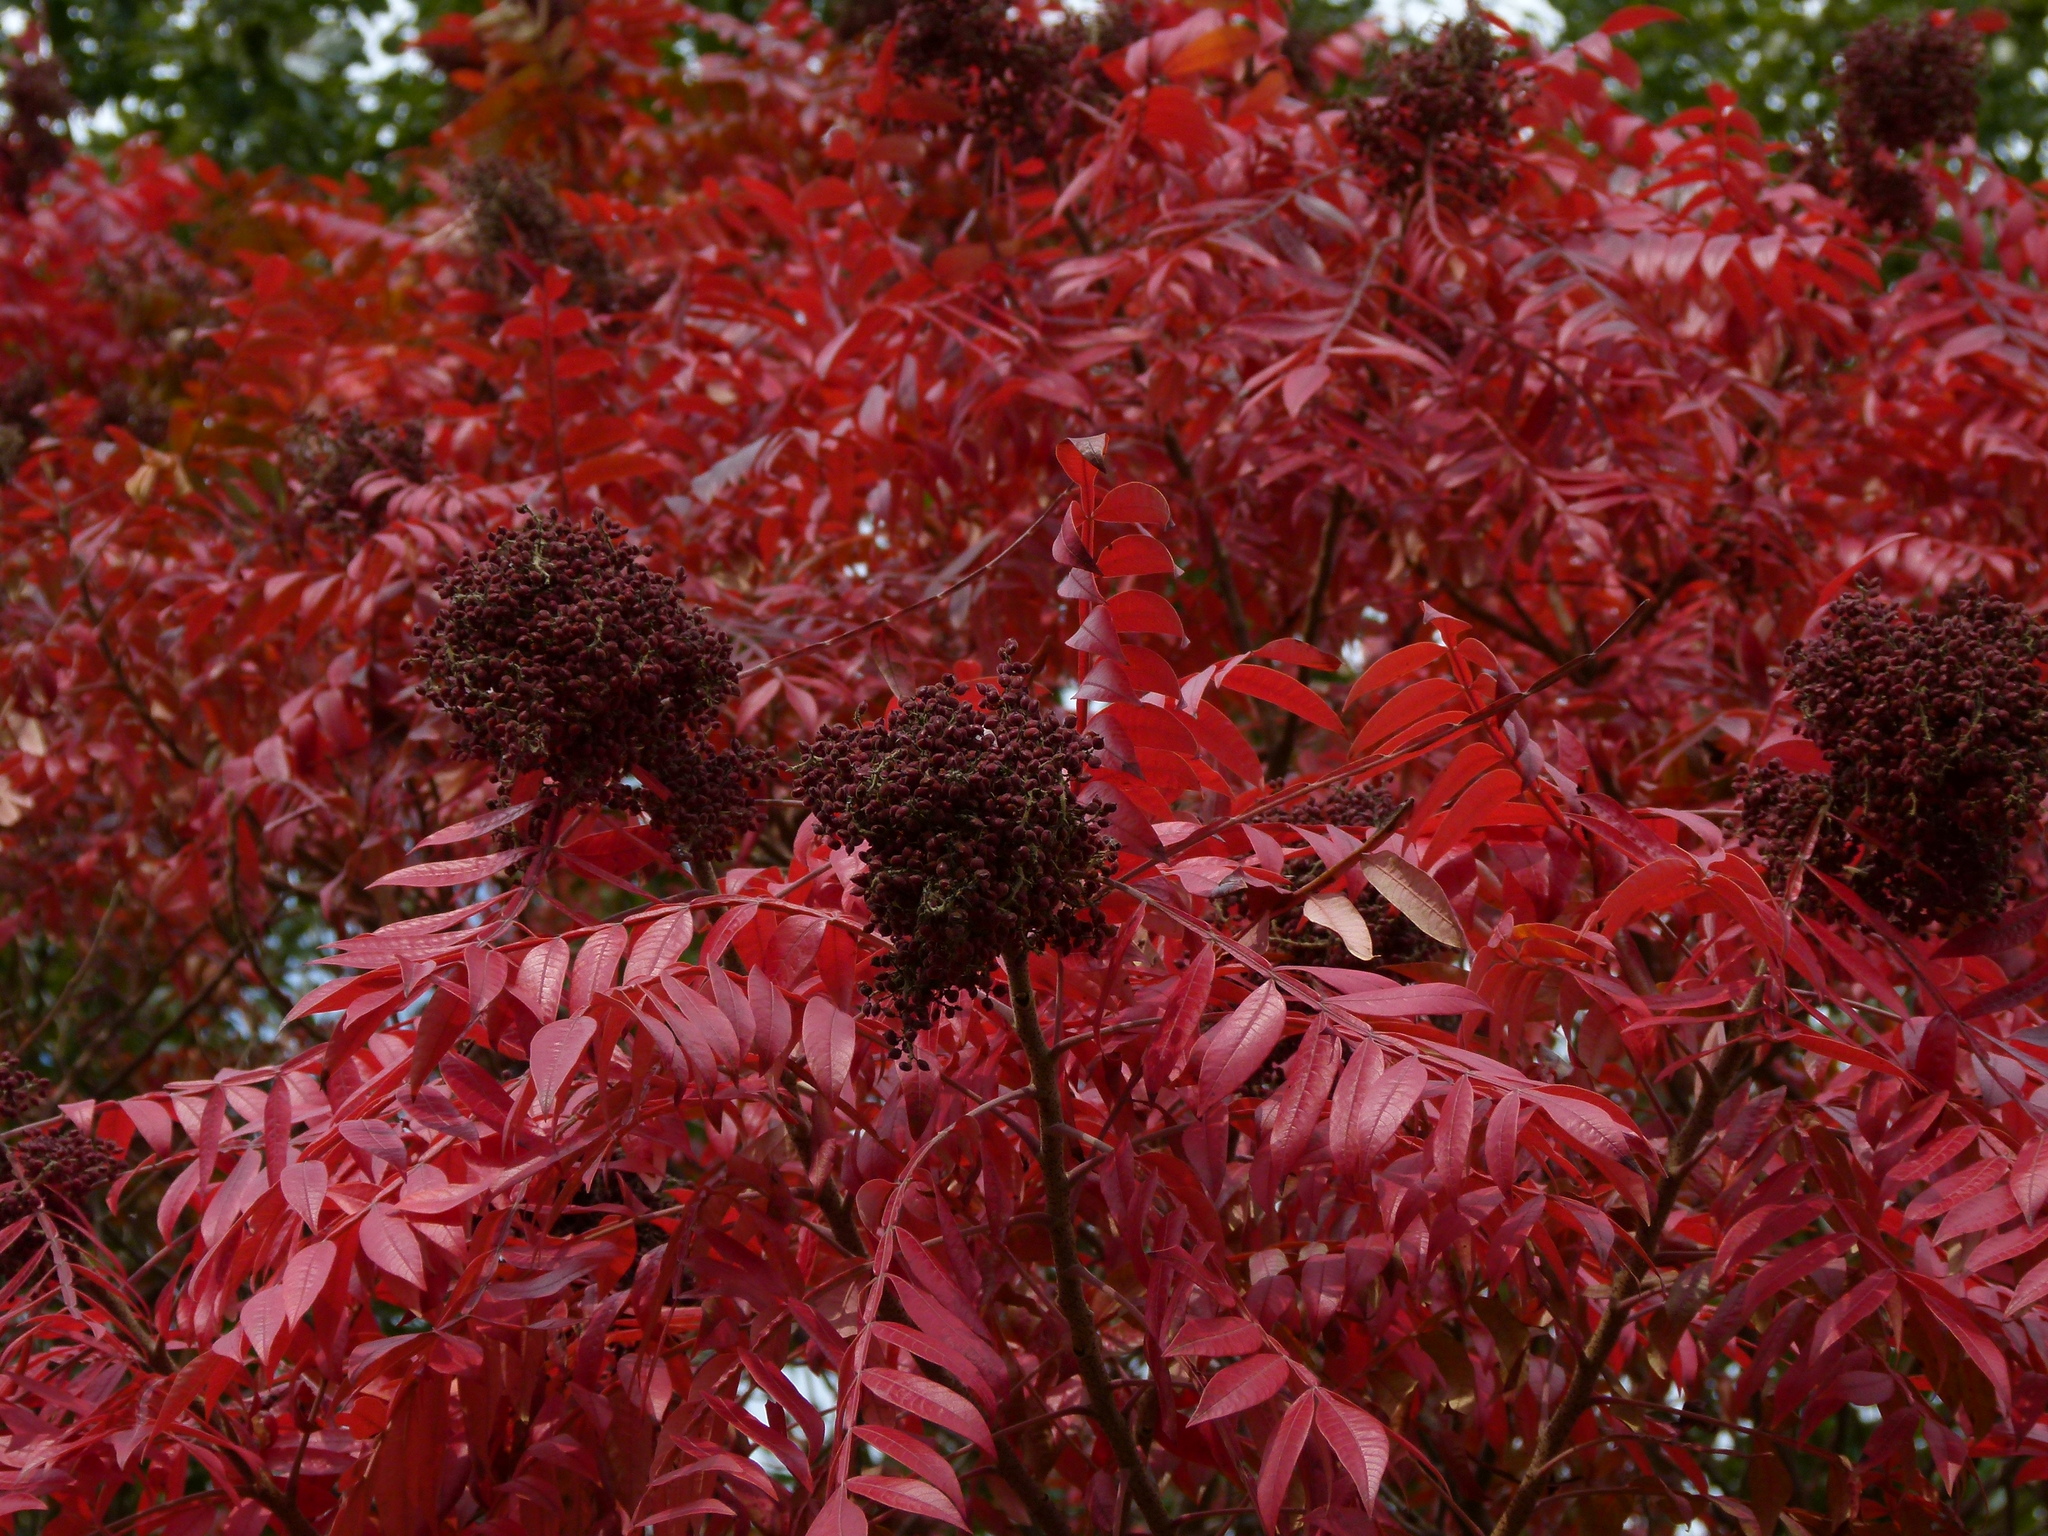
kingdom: Plantae
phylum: Tracheophyta
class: Magnoliopsida
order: Sapindales
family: Anacardiaceae
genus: Rhus
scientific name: Rhus copallina
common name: Shining sumac
